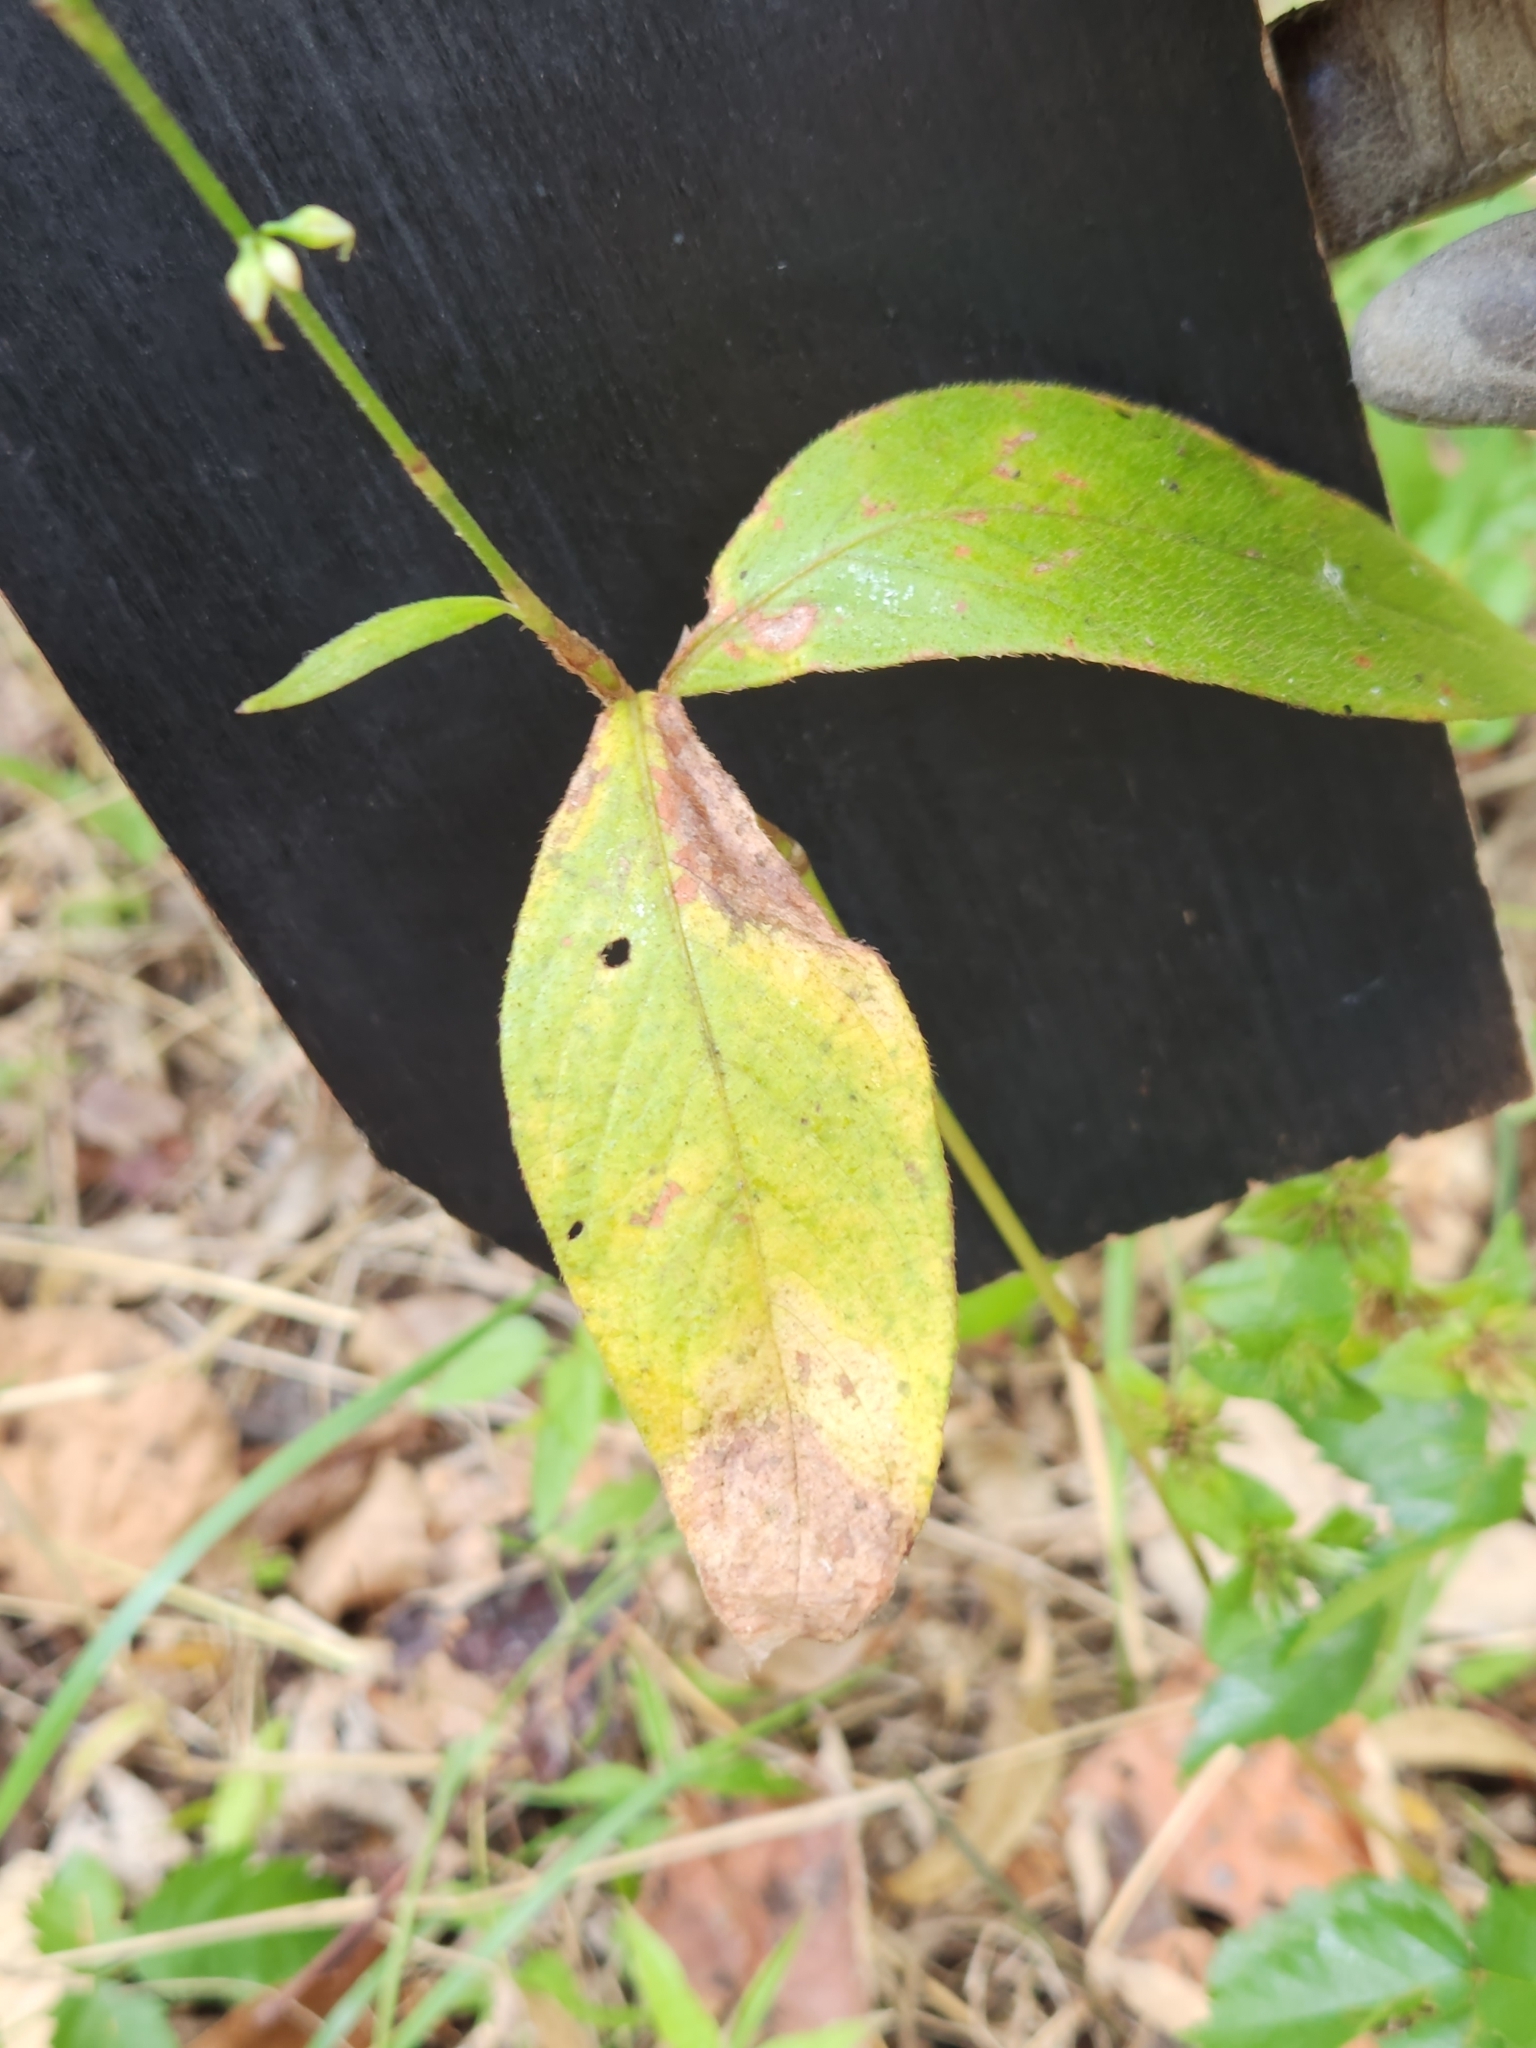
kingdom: Plantae
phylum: Tracheophyta
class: Magnoliopsida
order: Caryophyllales
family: Polygonaceae
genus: Persicaria
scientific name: Persicaria virginiana
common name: Jumpseed
